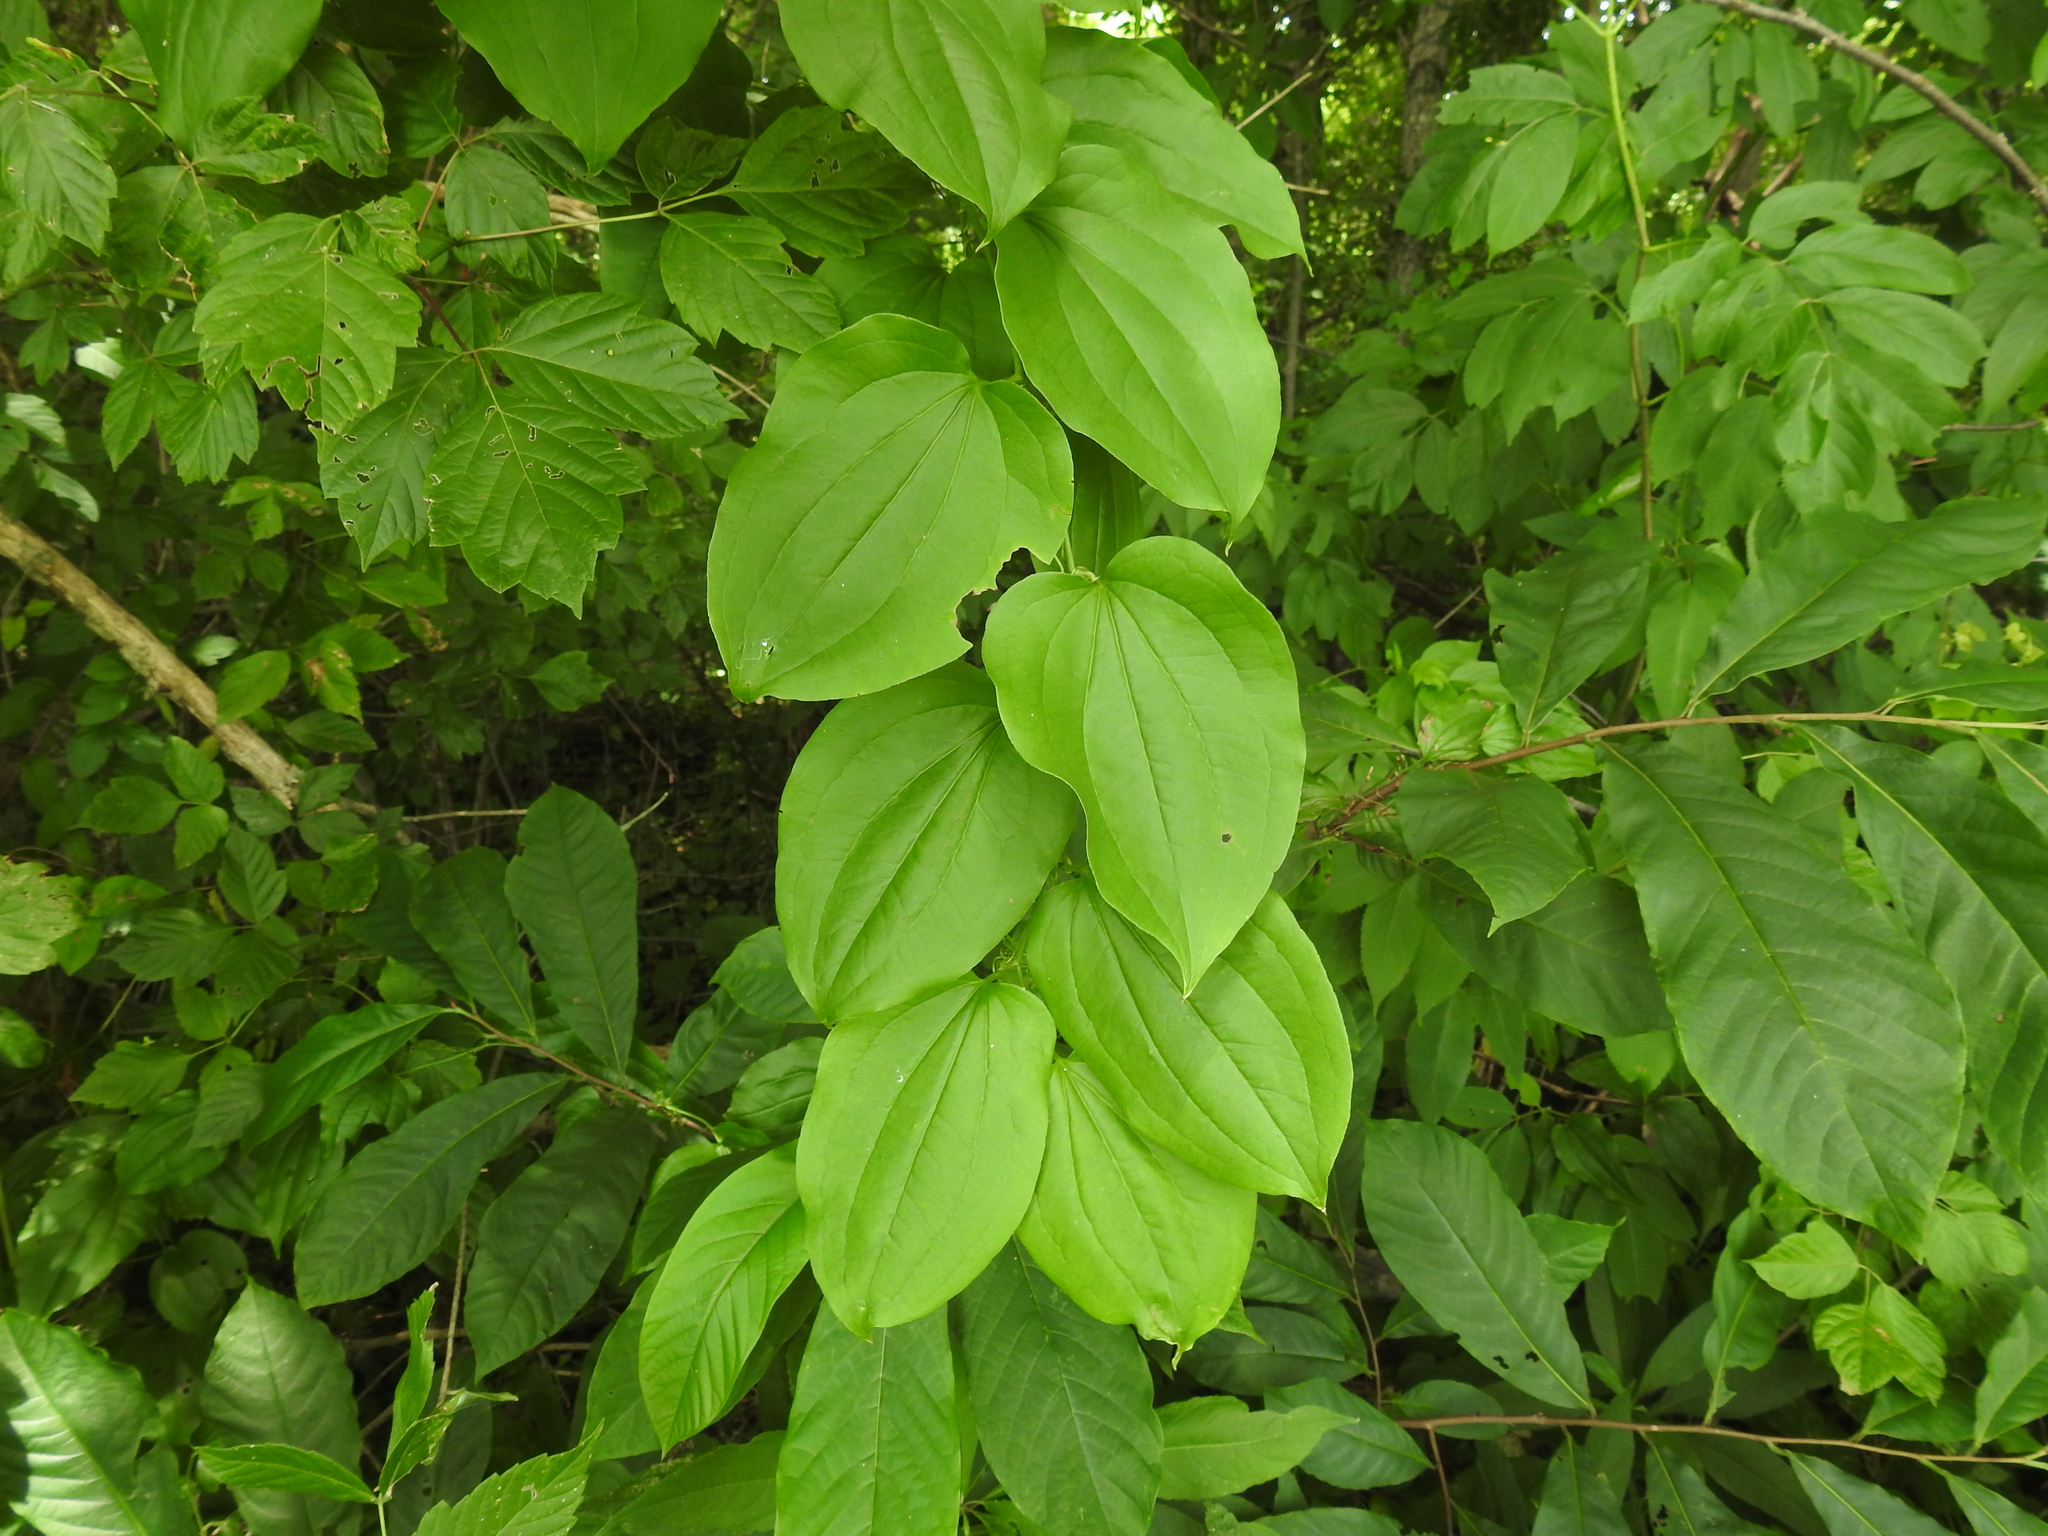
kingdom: Plantae
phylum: Tracheophyta
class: Liliopsida
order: Liliales
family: Smilacaceae
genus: Smilax
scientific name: Smilax tamnoides
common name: Hellfetter
